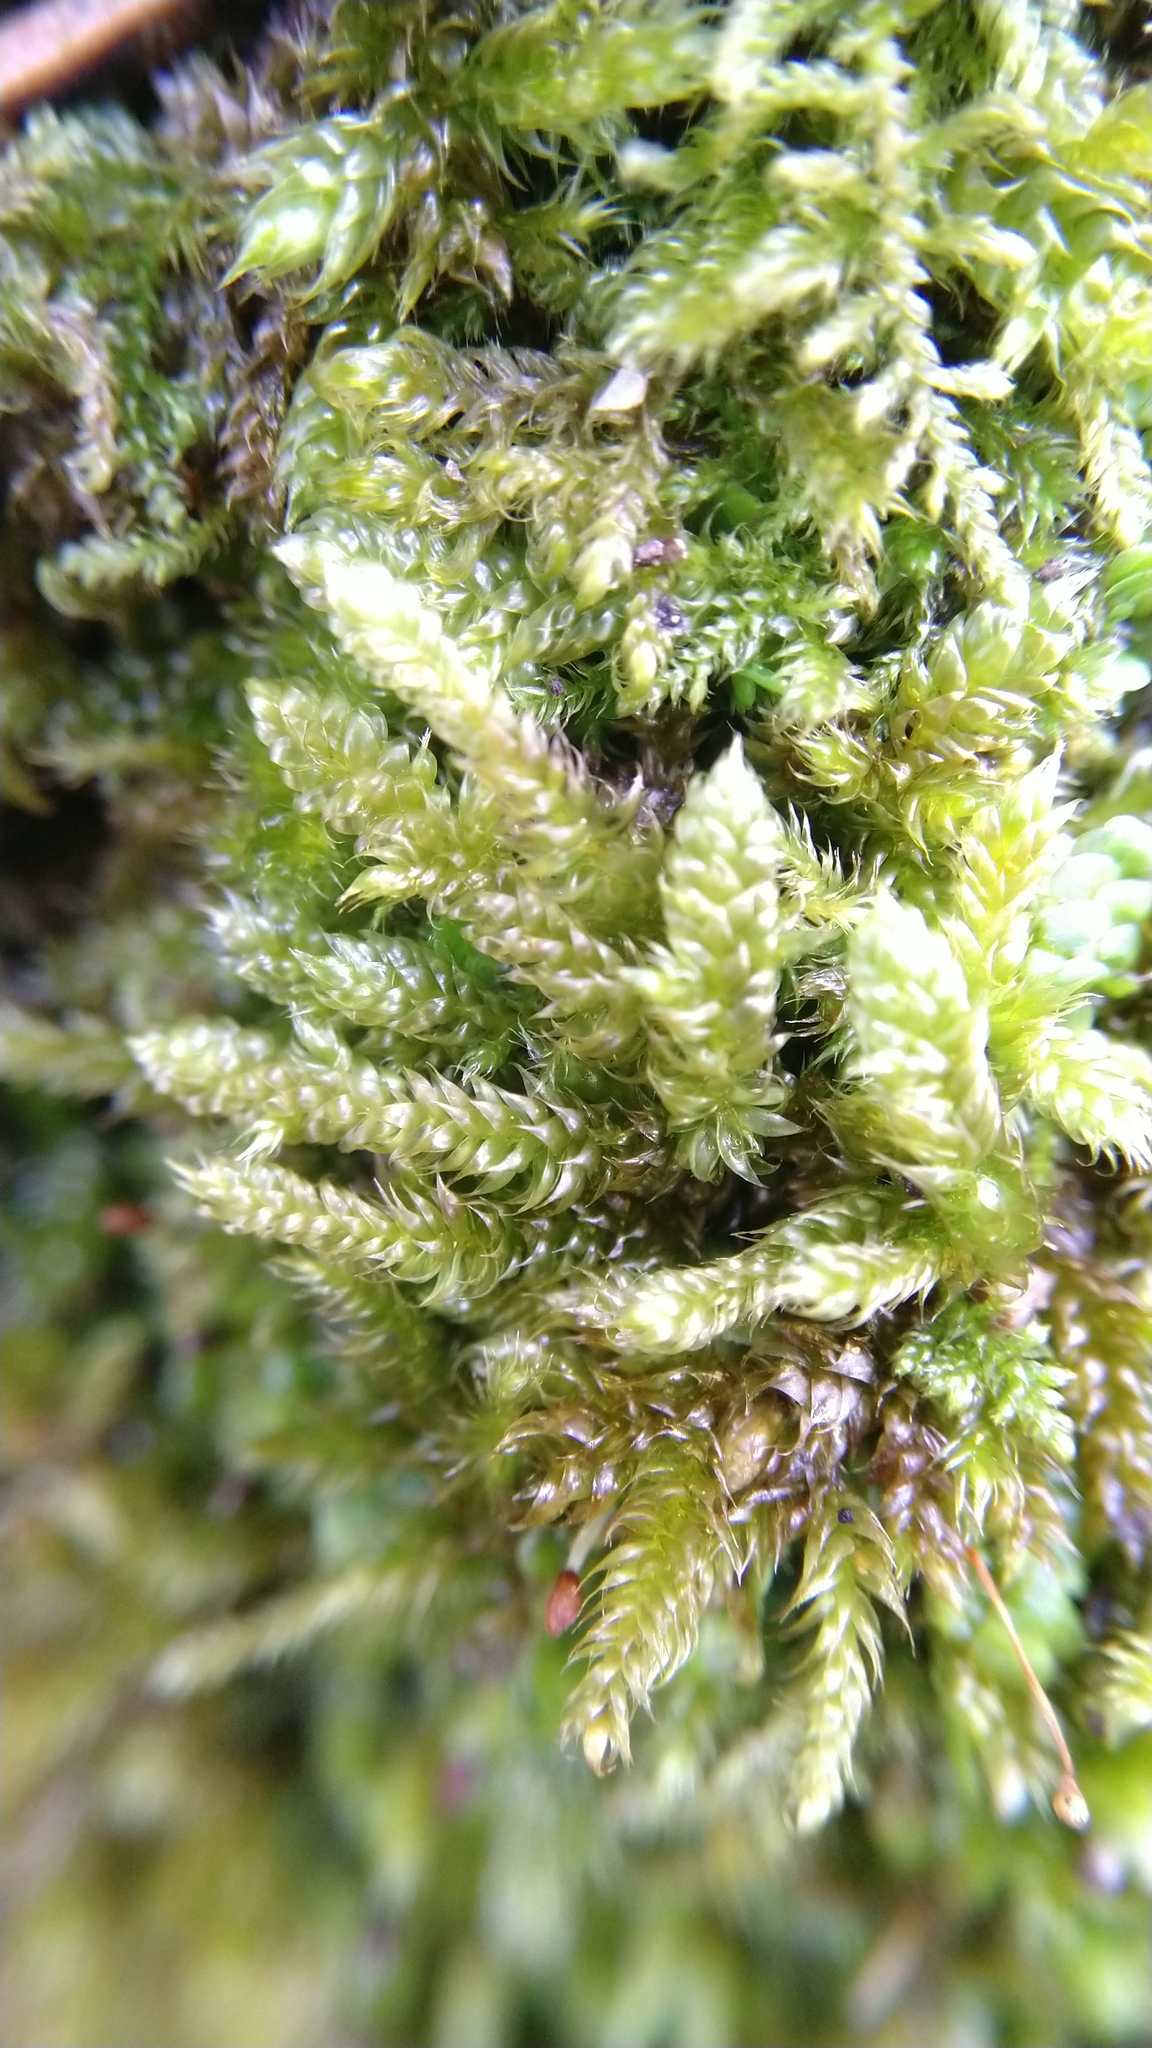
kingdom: Plantae
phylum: Bryophyta
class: Bryopsida
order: Hypnales
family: Hypnaceae
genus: Hypnum
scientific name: Hypnum cupressiforme
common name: Cypress-leaved plait-moss
